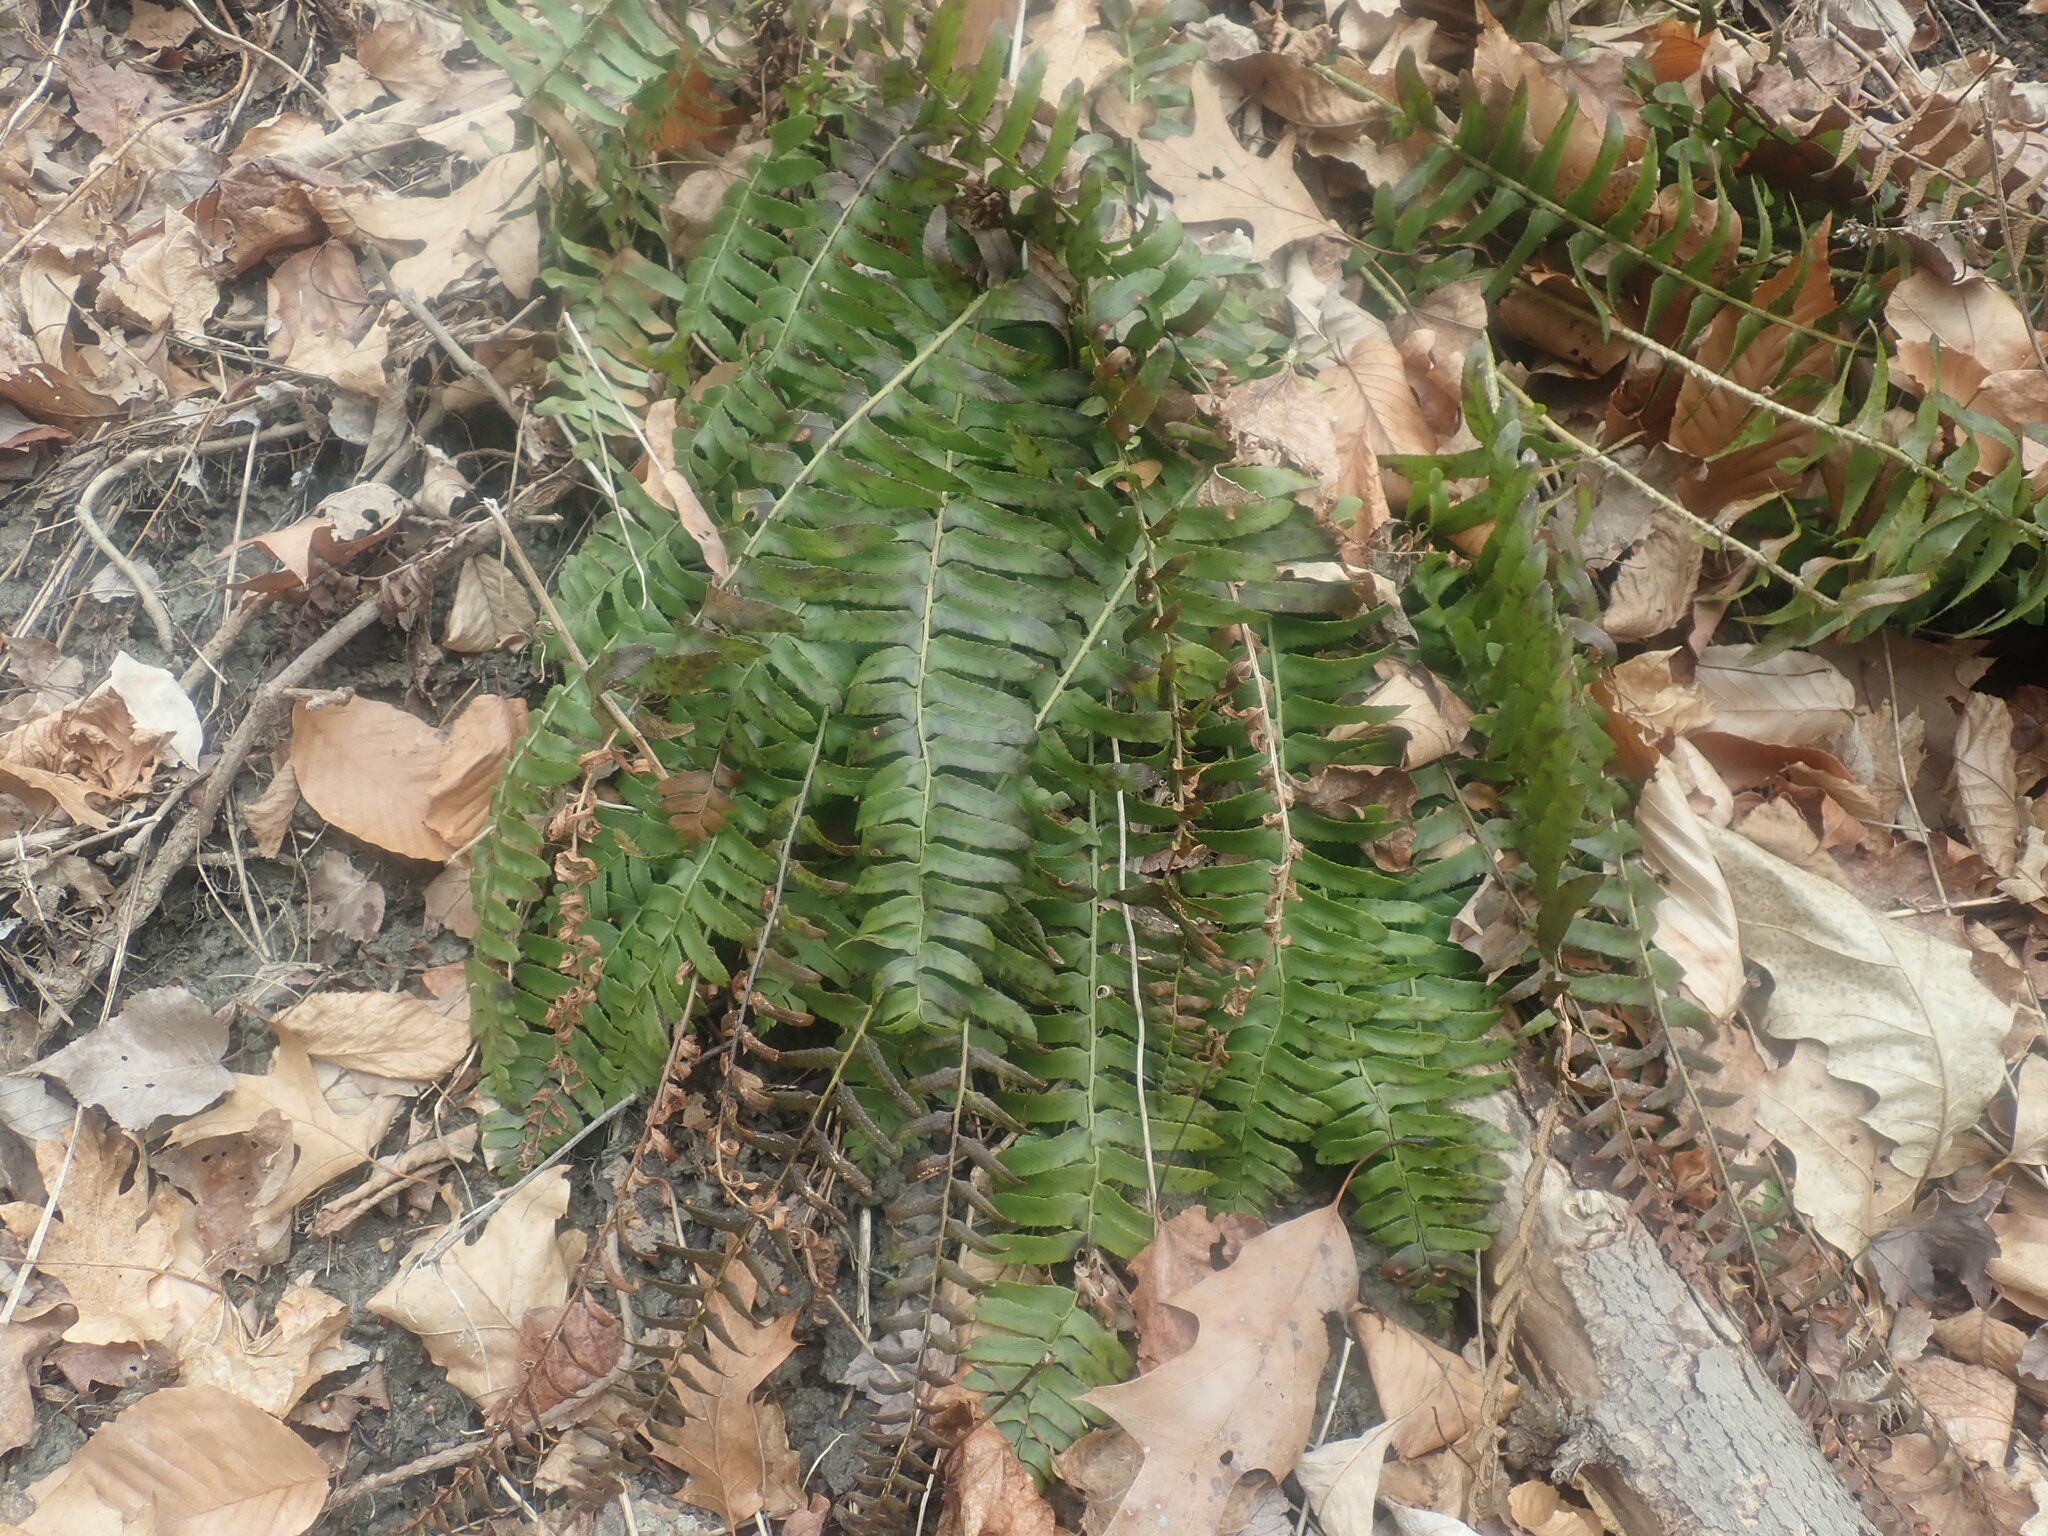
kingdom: Plantae
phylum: Tracheophyta
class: Polypodiopsida
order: Polypodiales
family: Dryopteridaceae
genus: Polystichum
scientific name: Polystichum acrostichoides
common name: Christmas fern
